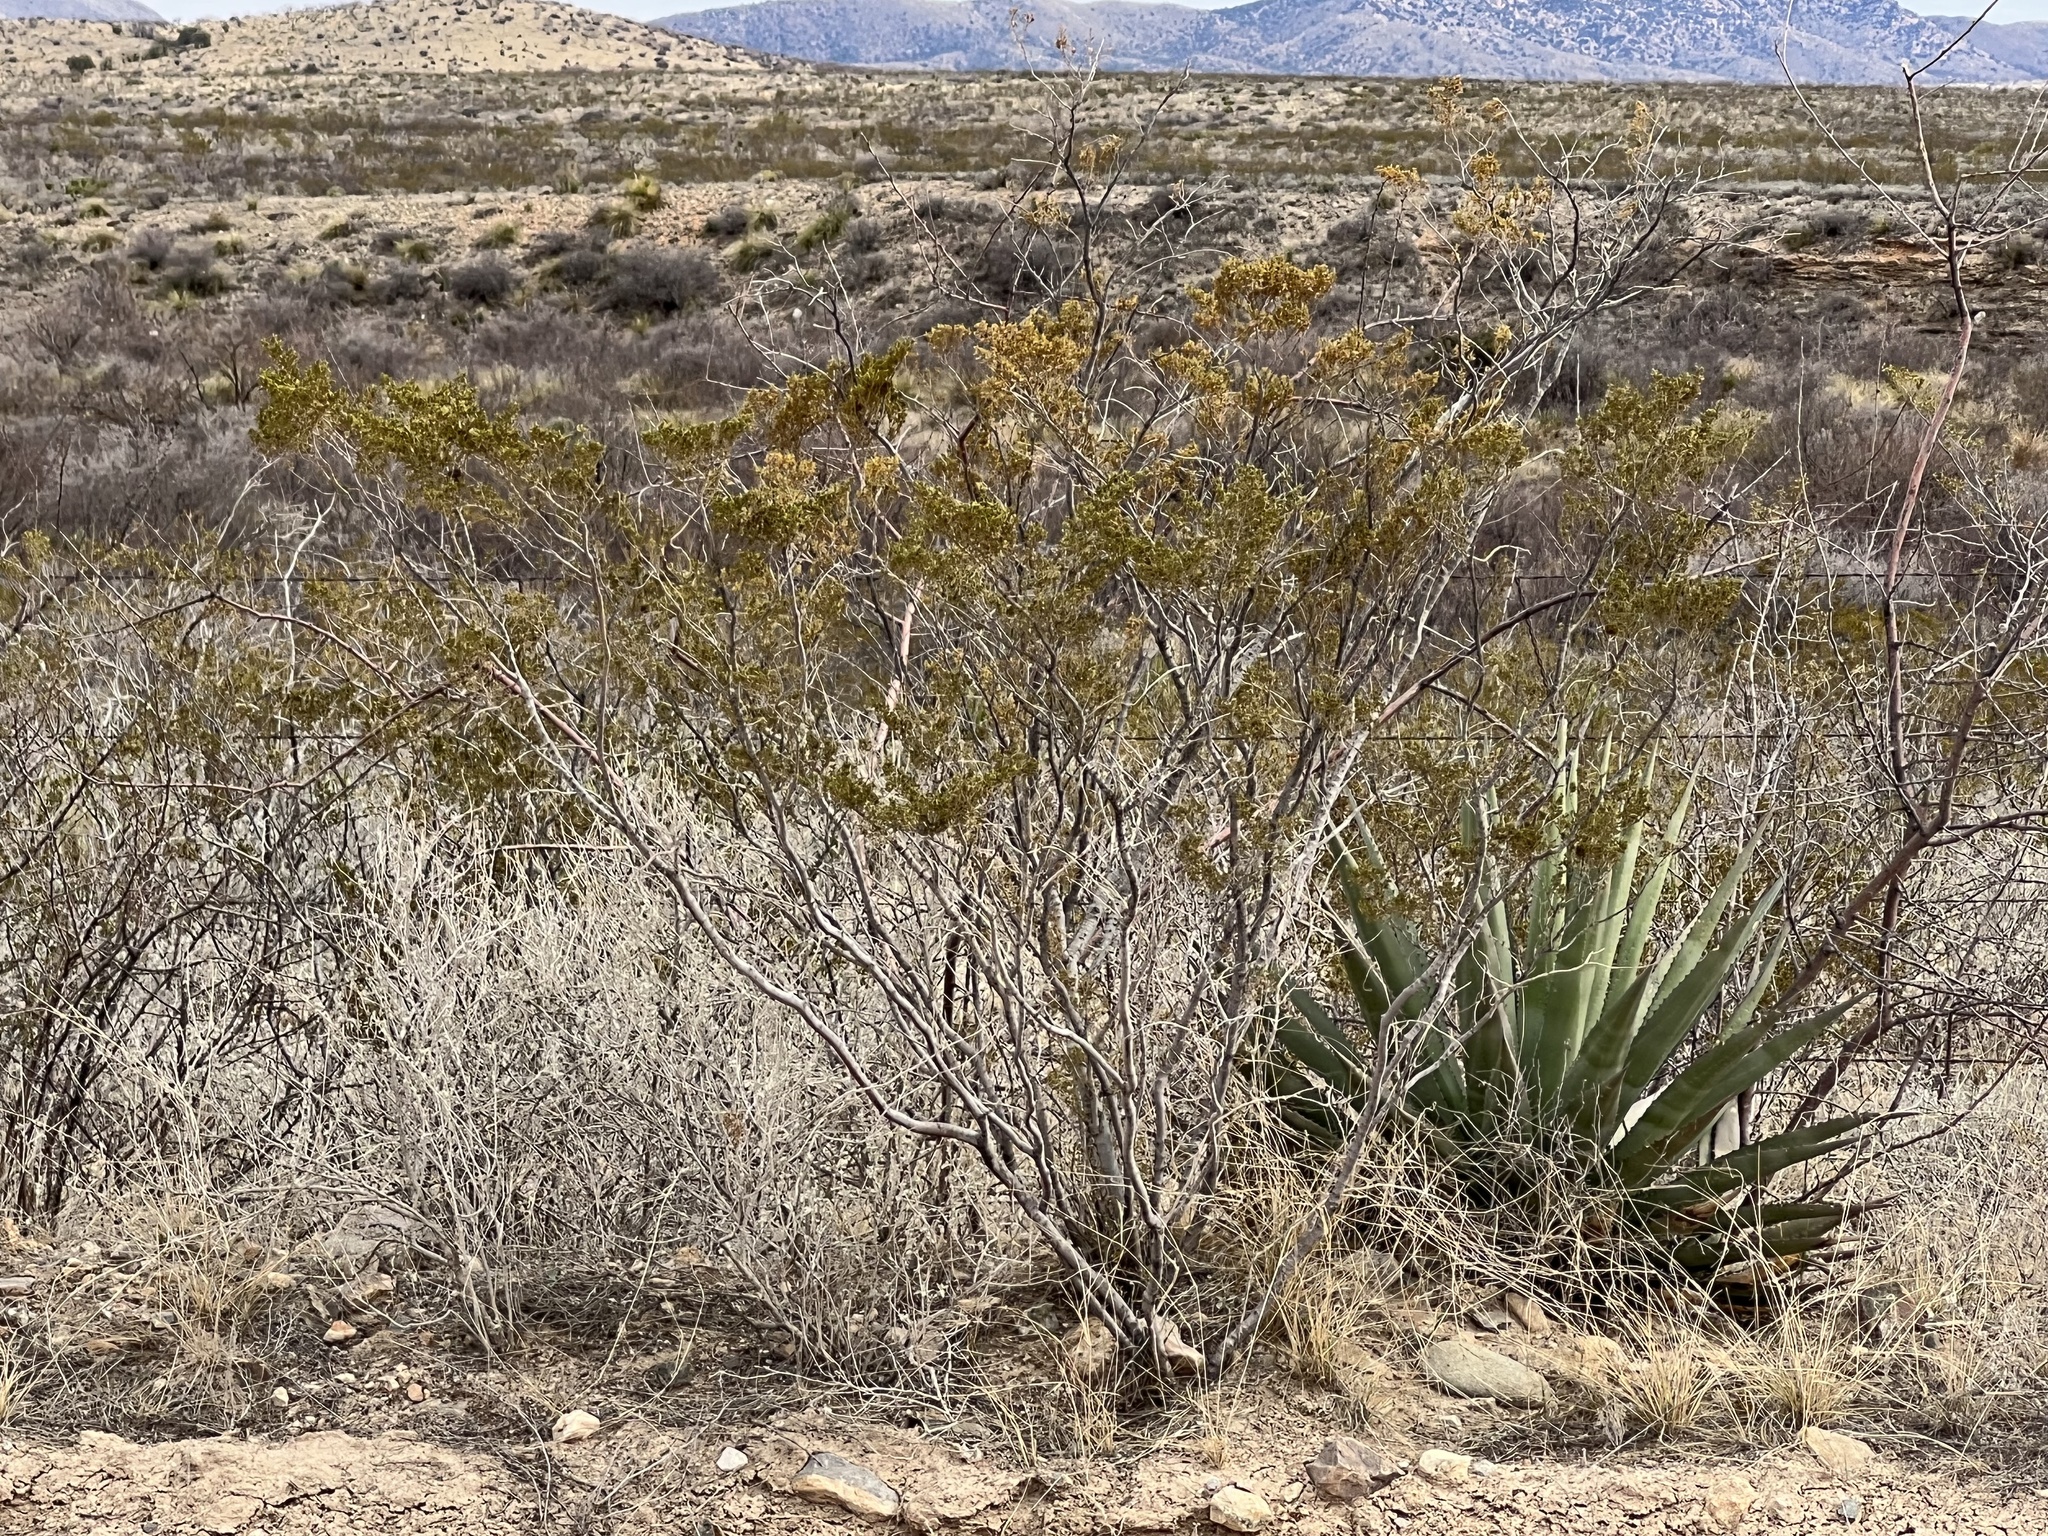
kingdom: Plantae
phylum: Tracheophyta
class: Magnoliopsida
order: Zygophyllales
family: Zygophyllaceae
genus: Larrea
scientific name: Larrea tridentata
